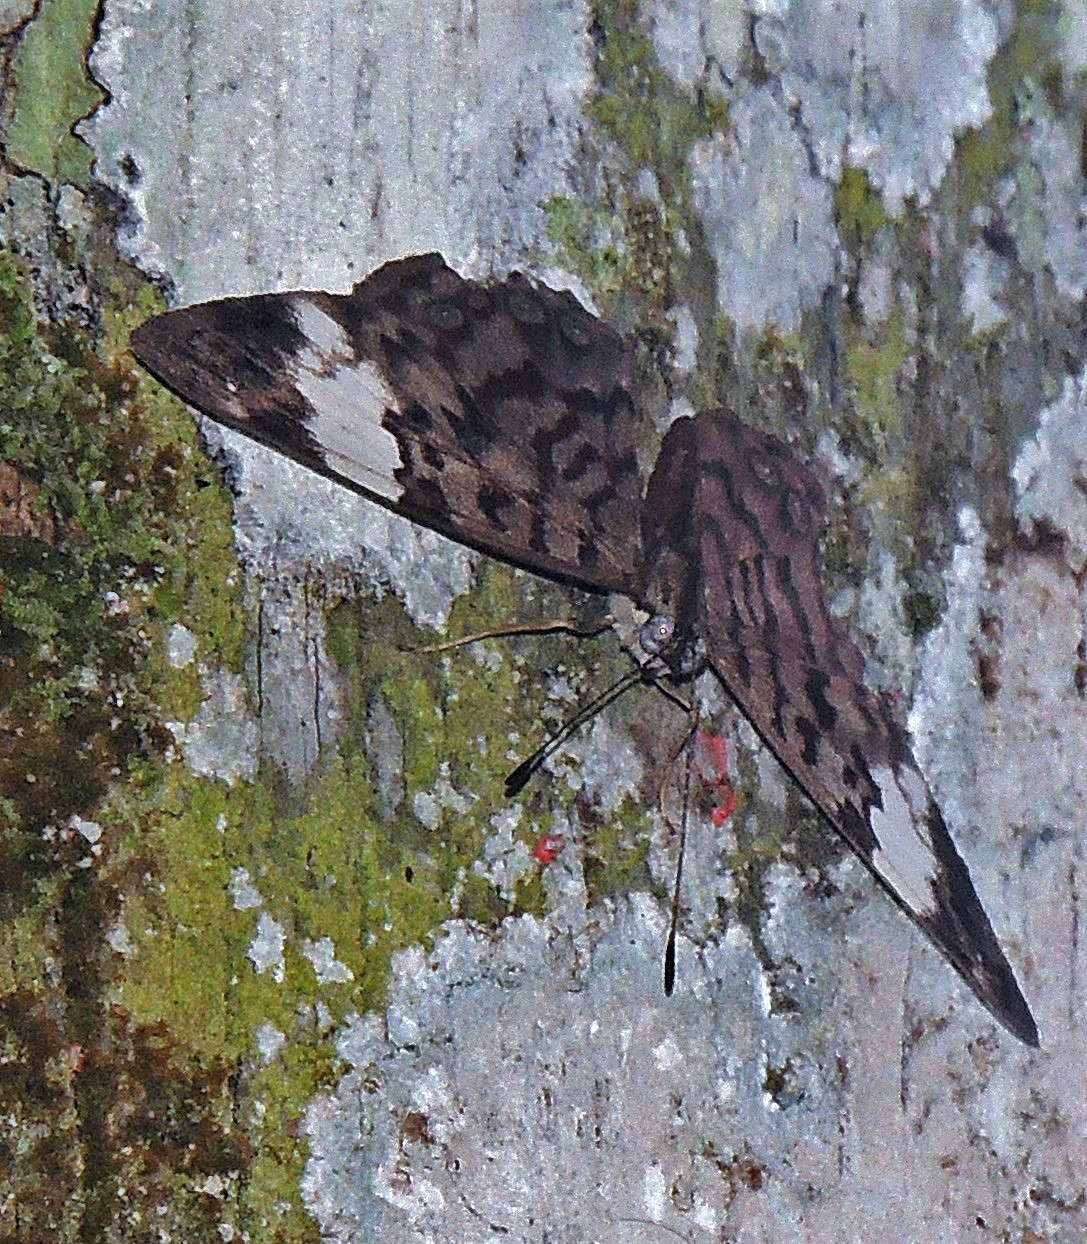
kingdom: Animalia
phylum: Arthropoda
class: Insecta
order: Lepidoptera
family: Nymphalidae
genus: Ectima
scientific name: Ectima thecla
